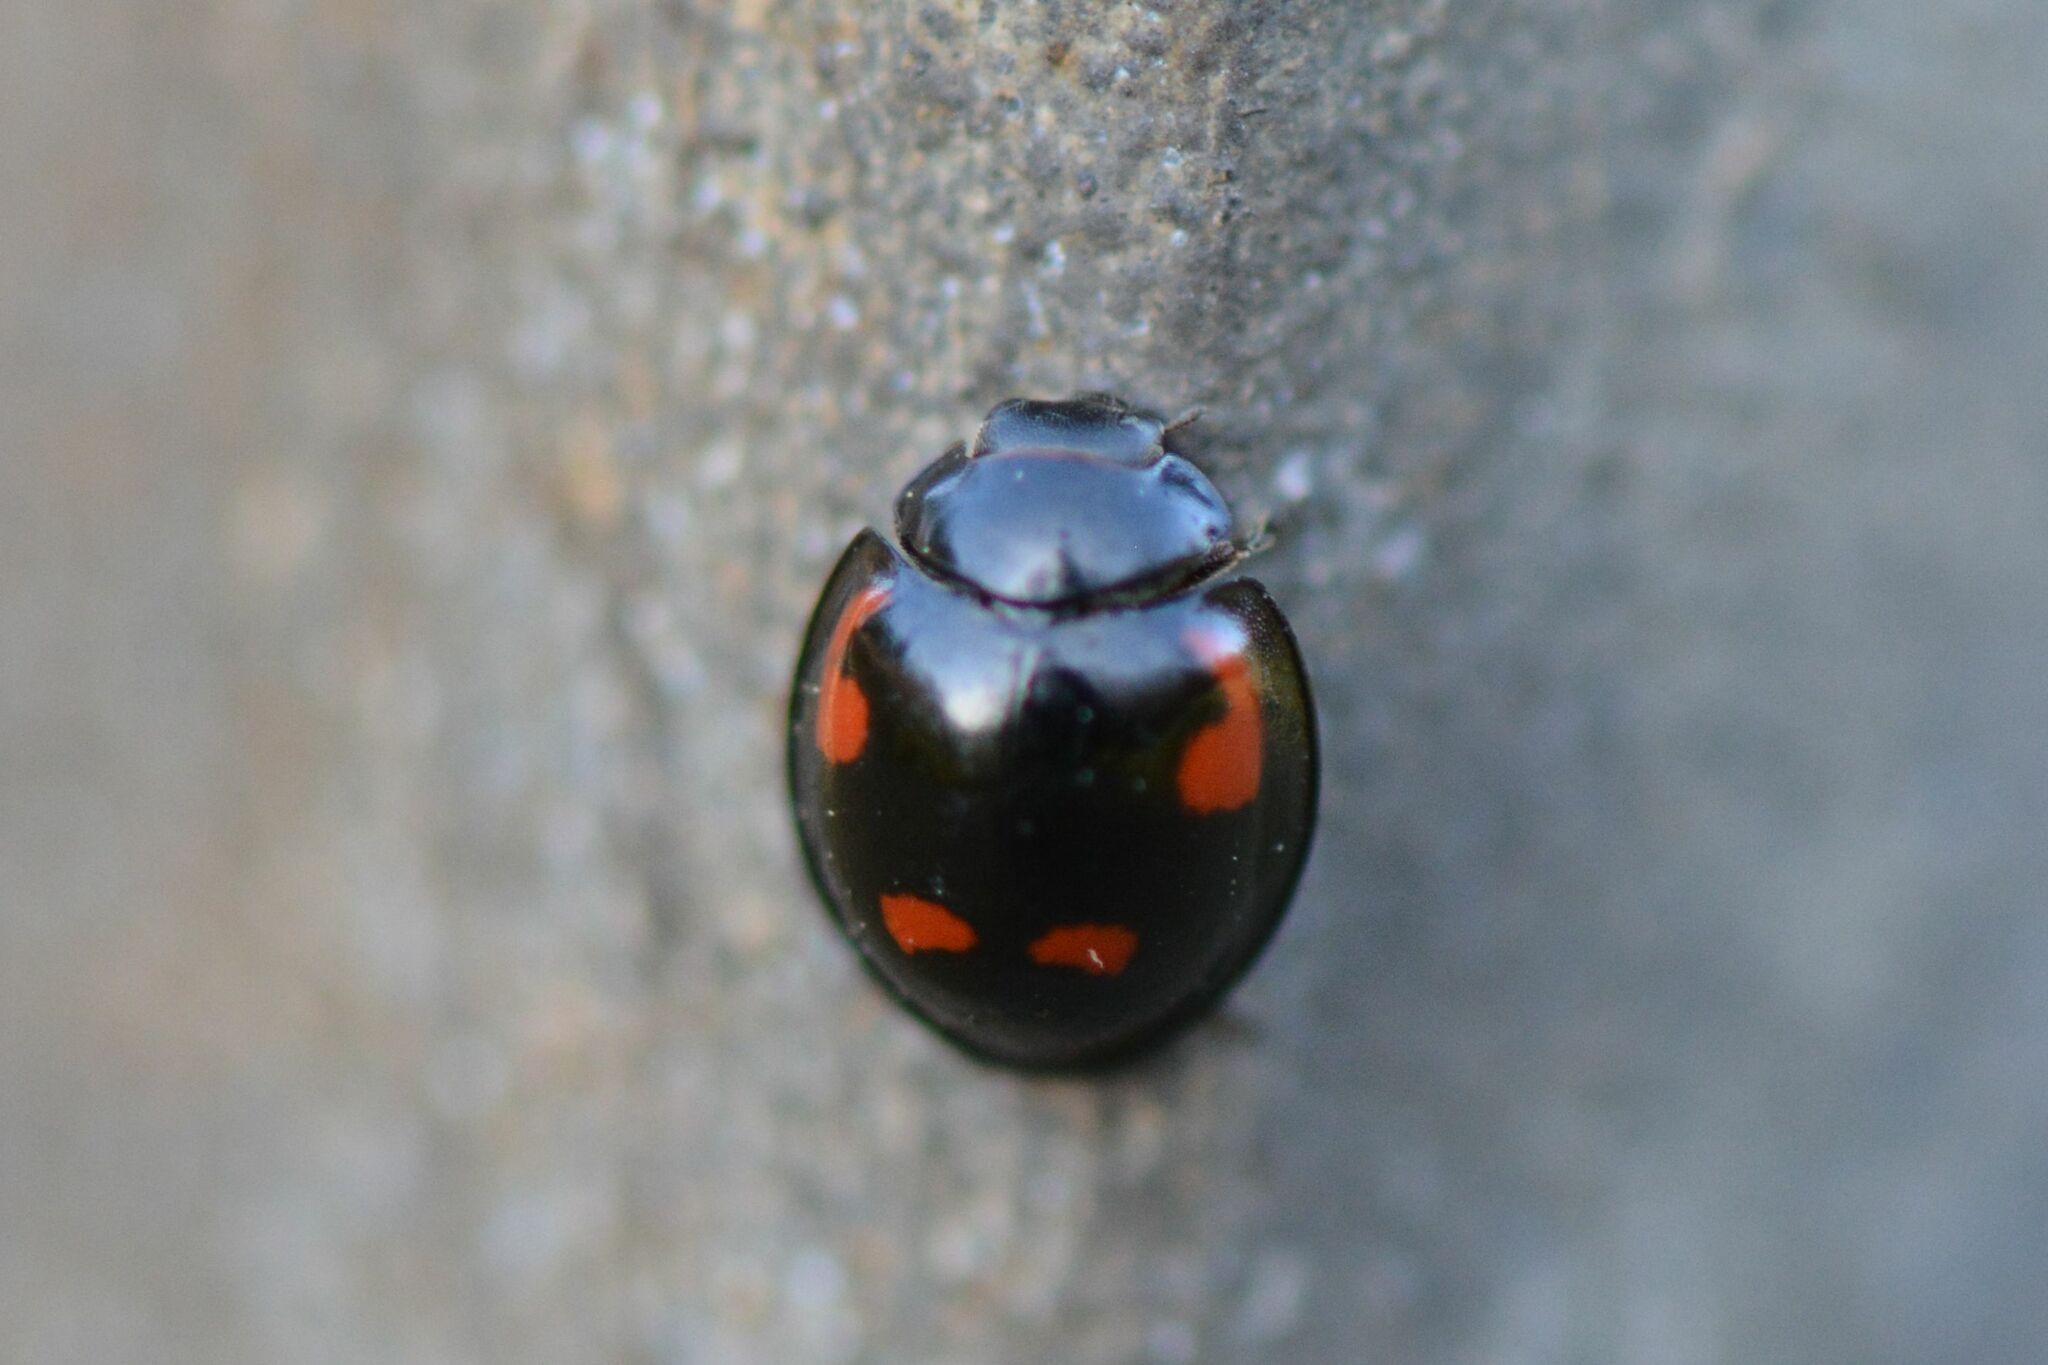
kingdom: Animalia
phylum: Arthropoda
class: Insecta
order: Coleoptera
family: Coccinellidae
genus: Brumus
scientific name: Brumus quadripustulatus
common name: Ladybird beetle
